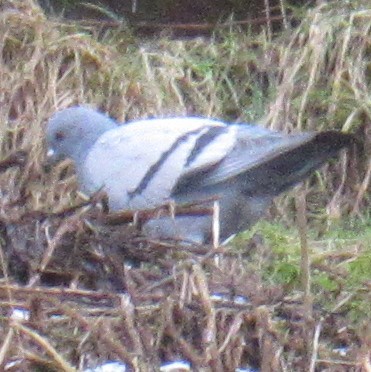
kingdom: Animalia
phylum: Chordata
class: Aves
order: Columbiformes
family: Columbidae
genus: Columba
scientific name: Columba livia
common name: Rock pigeon
